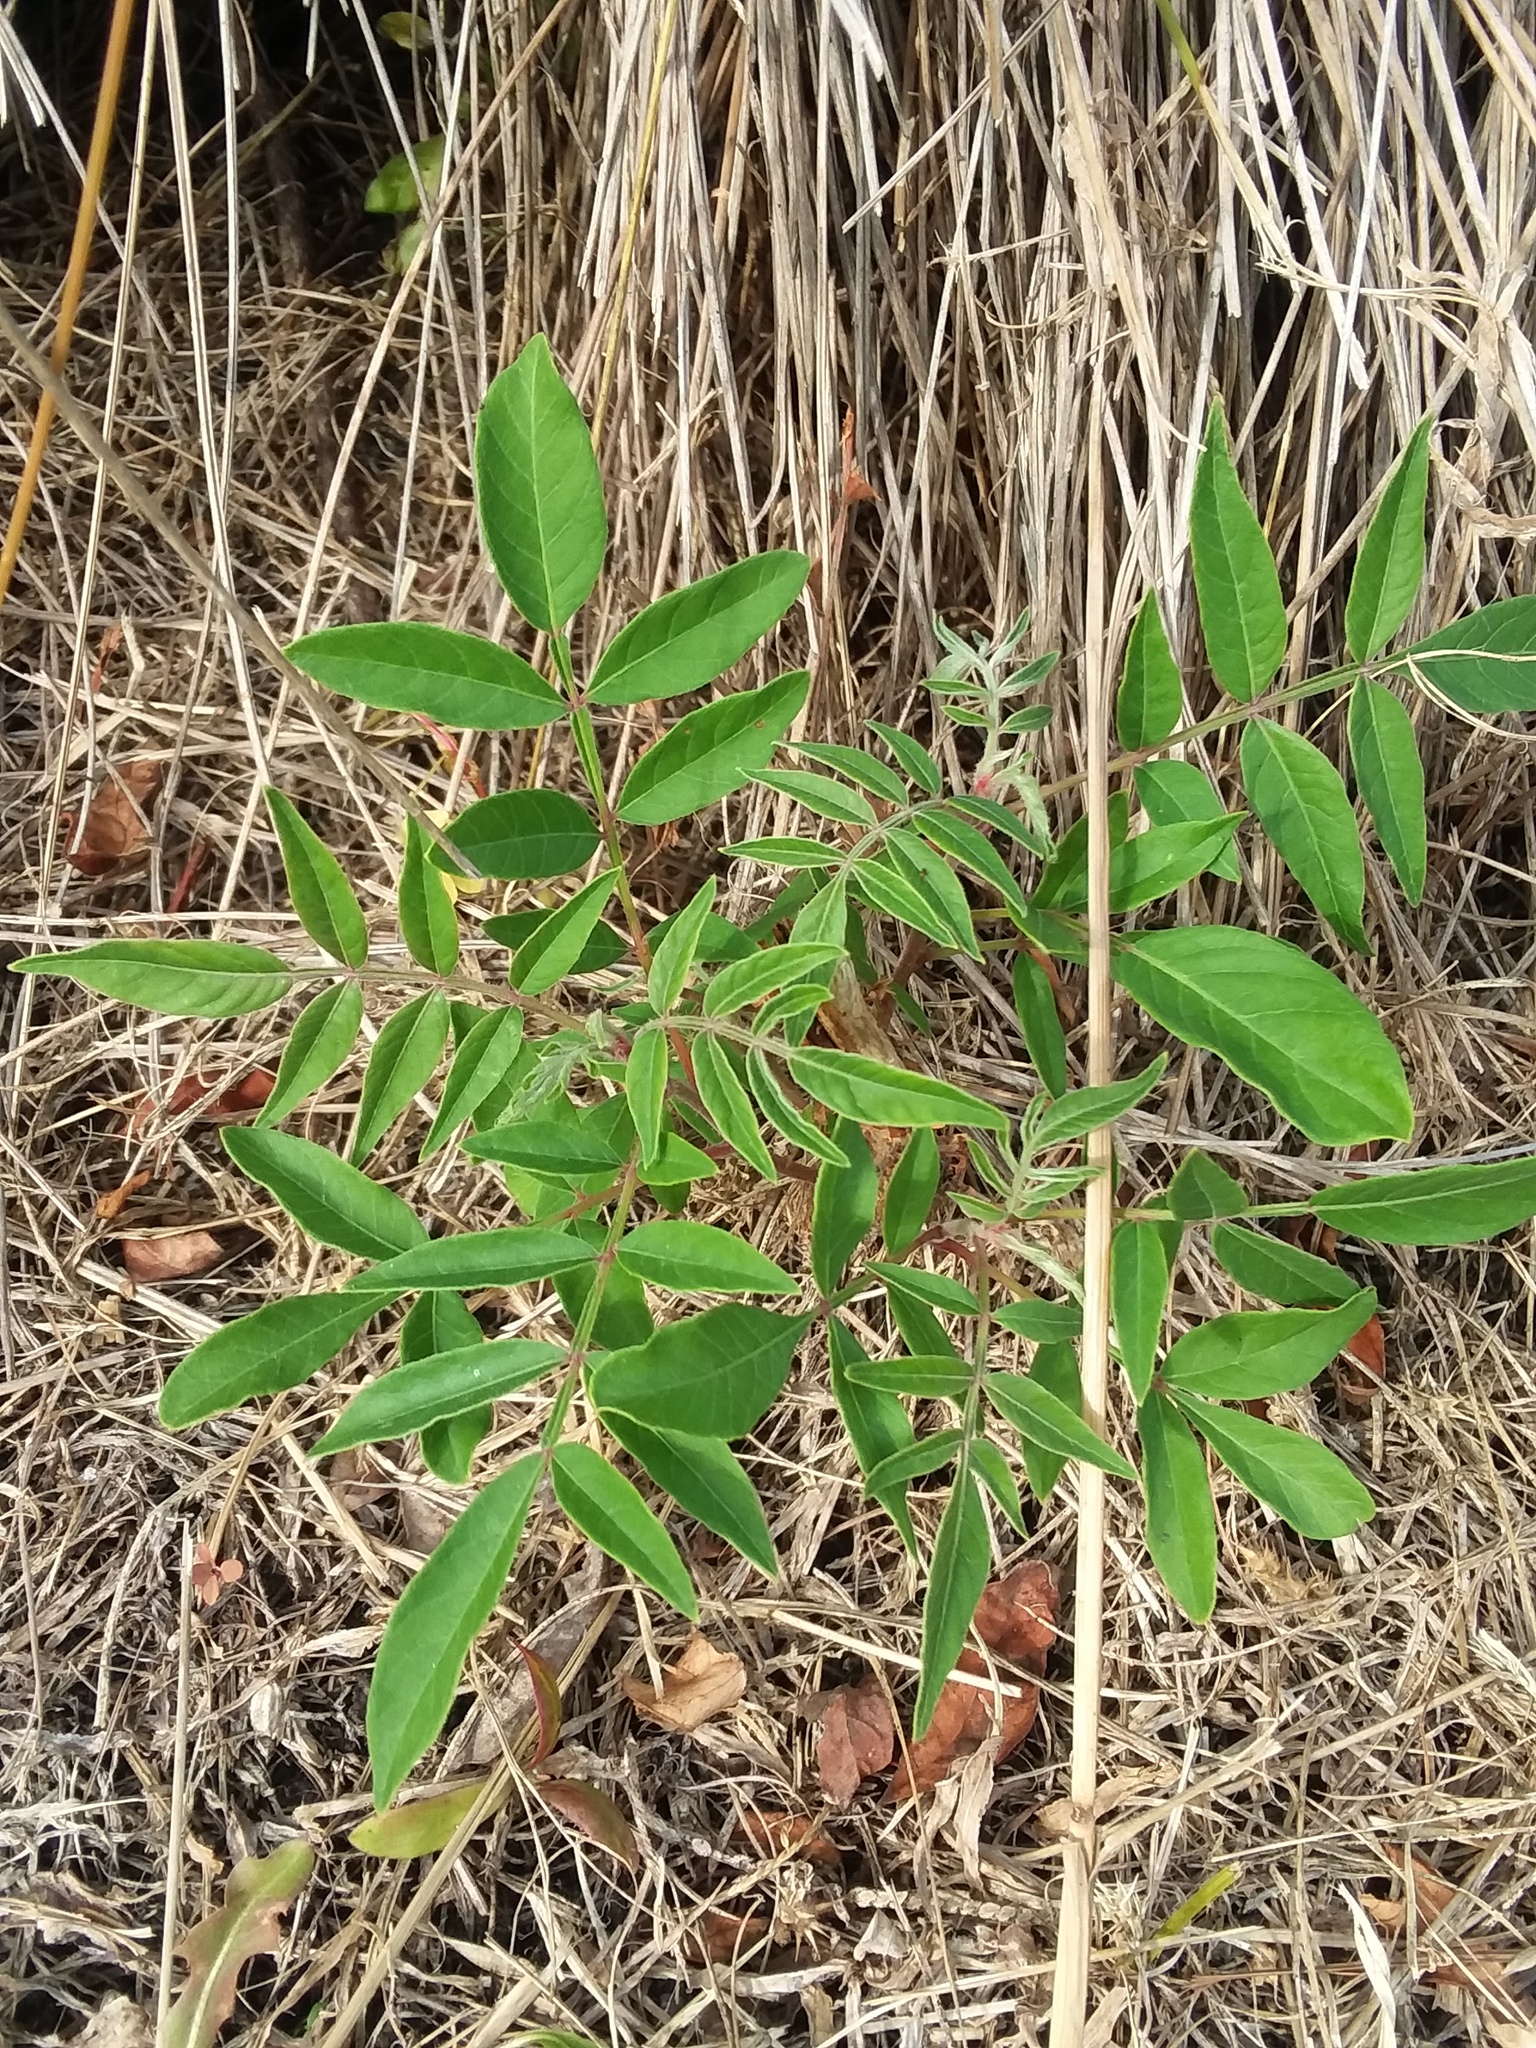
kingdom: Plantae
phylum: Tracheophyta
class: Magnoliopsida
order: Sapindales
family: Anacardiaceae
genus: Rhus
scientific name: Rhus copallina
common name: Shining sumac
